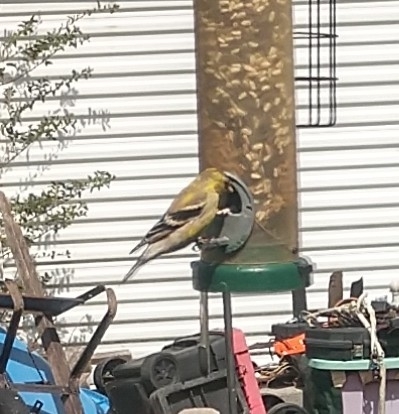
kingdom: Animalia
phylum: Chordata
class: Aves
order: Passeriformes
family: Fringillidae
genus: Spinus
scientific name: Spinus tristis
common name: American goldfinch
